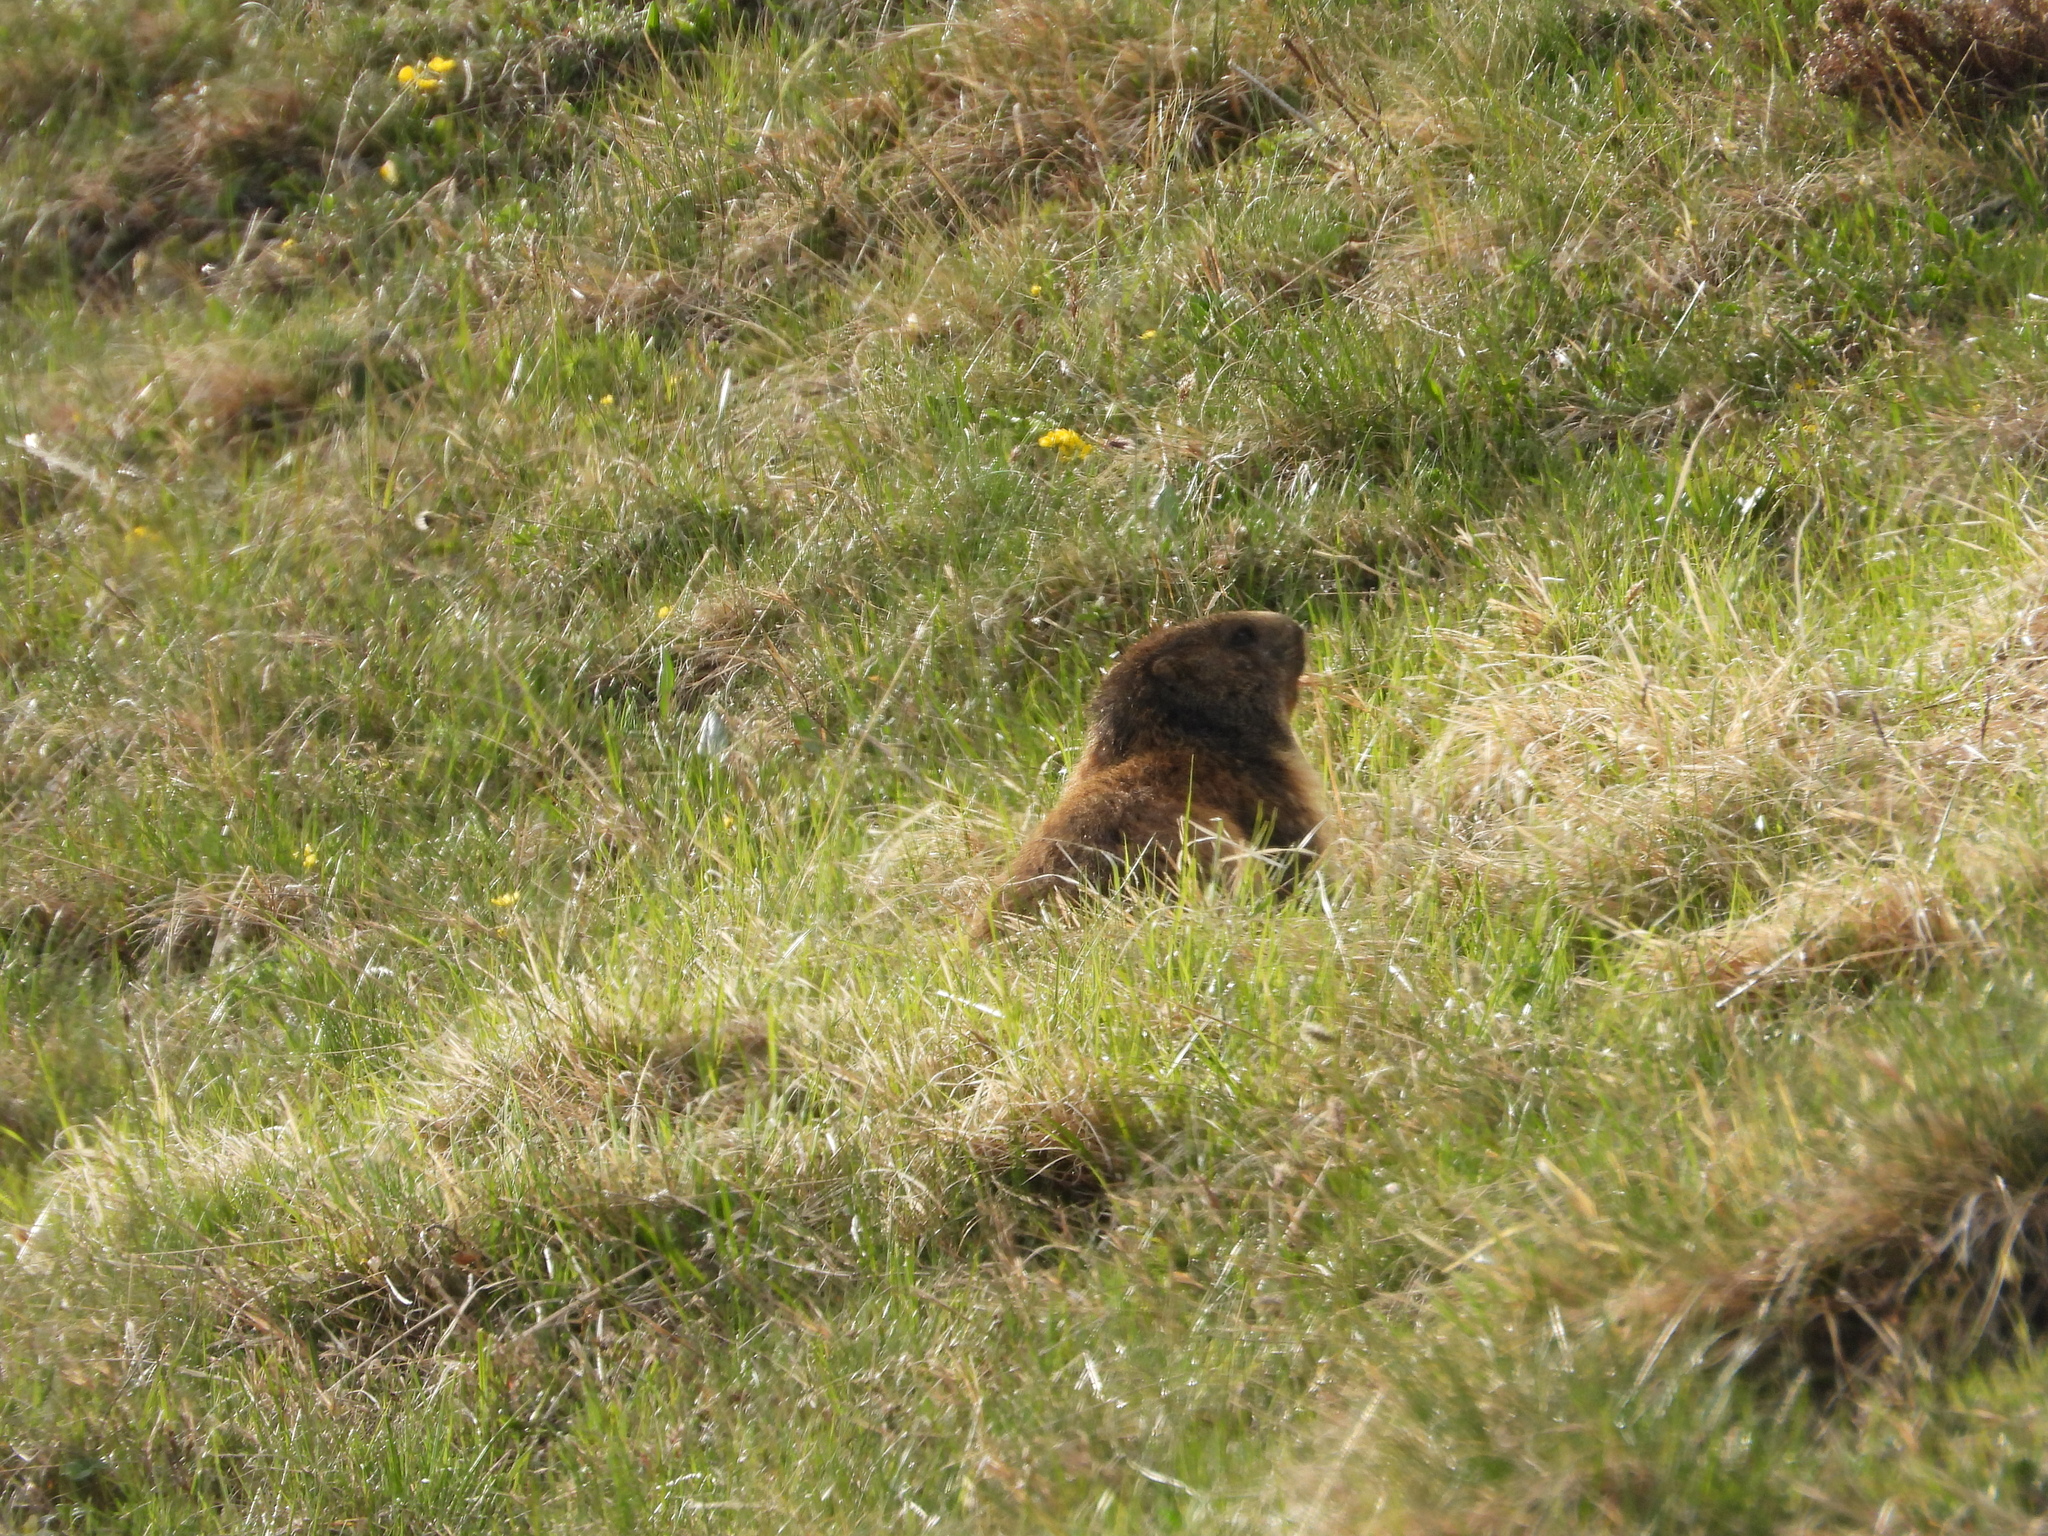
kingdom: Animalia
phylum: Chordata
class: Mammalia
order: Rodentia
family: Sciuridae
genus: Marmota
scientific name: Marmota marmota
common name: Alpine marmot
